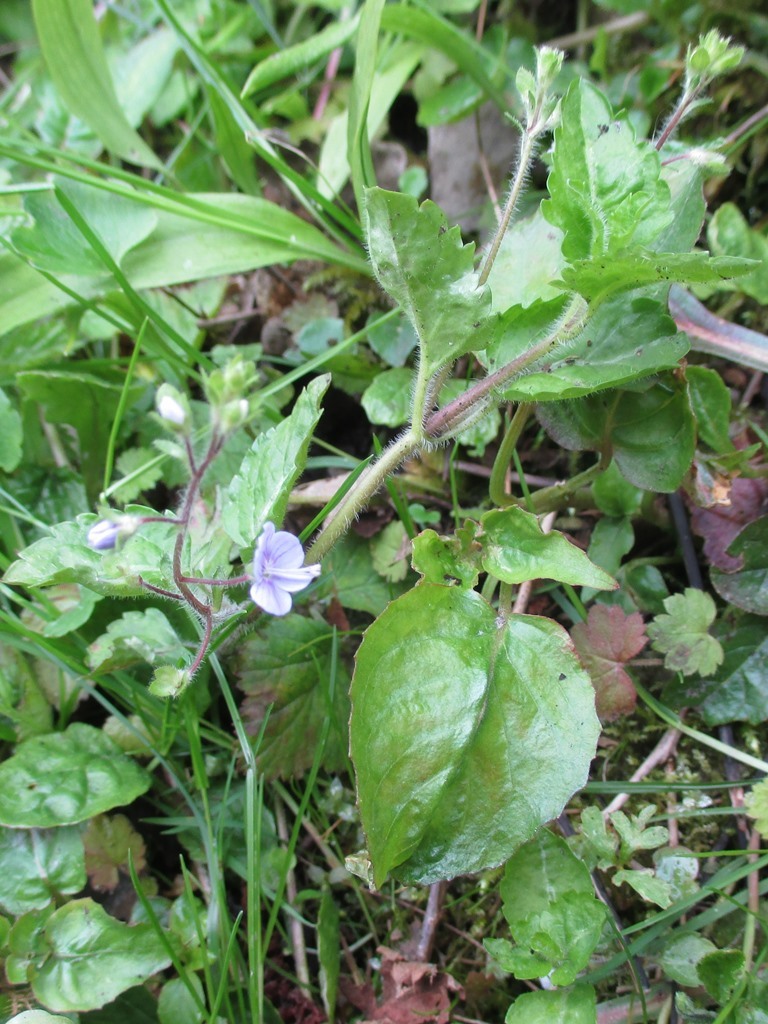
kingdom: Plantae
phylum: Tracheophyta
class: Magnoliopsida
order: Lamiales
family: Plantaginaceae
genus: Veronica
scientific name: Veronica montana
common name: Wood speedwell
